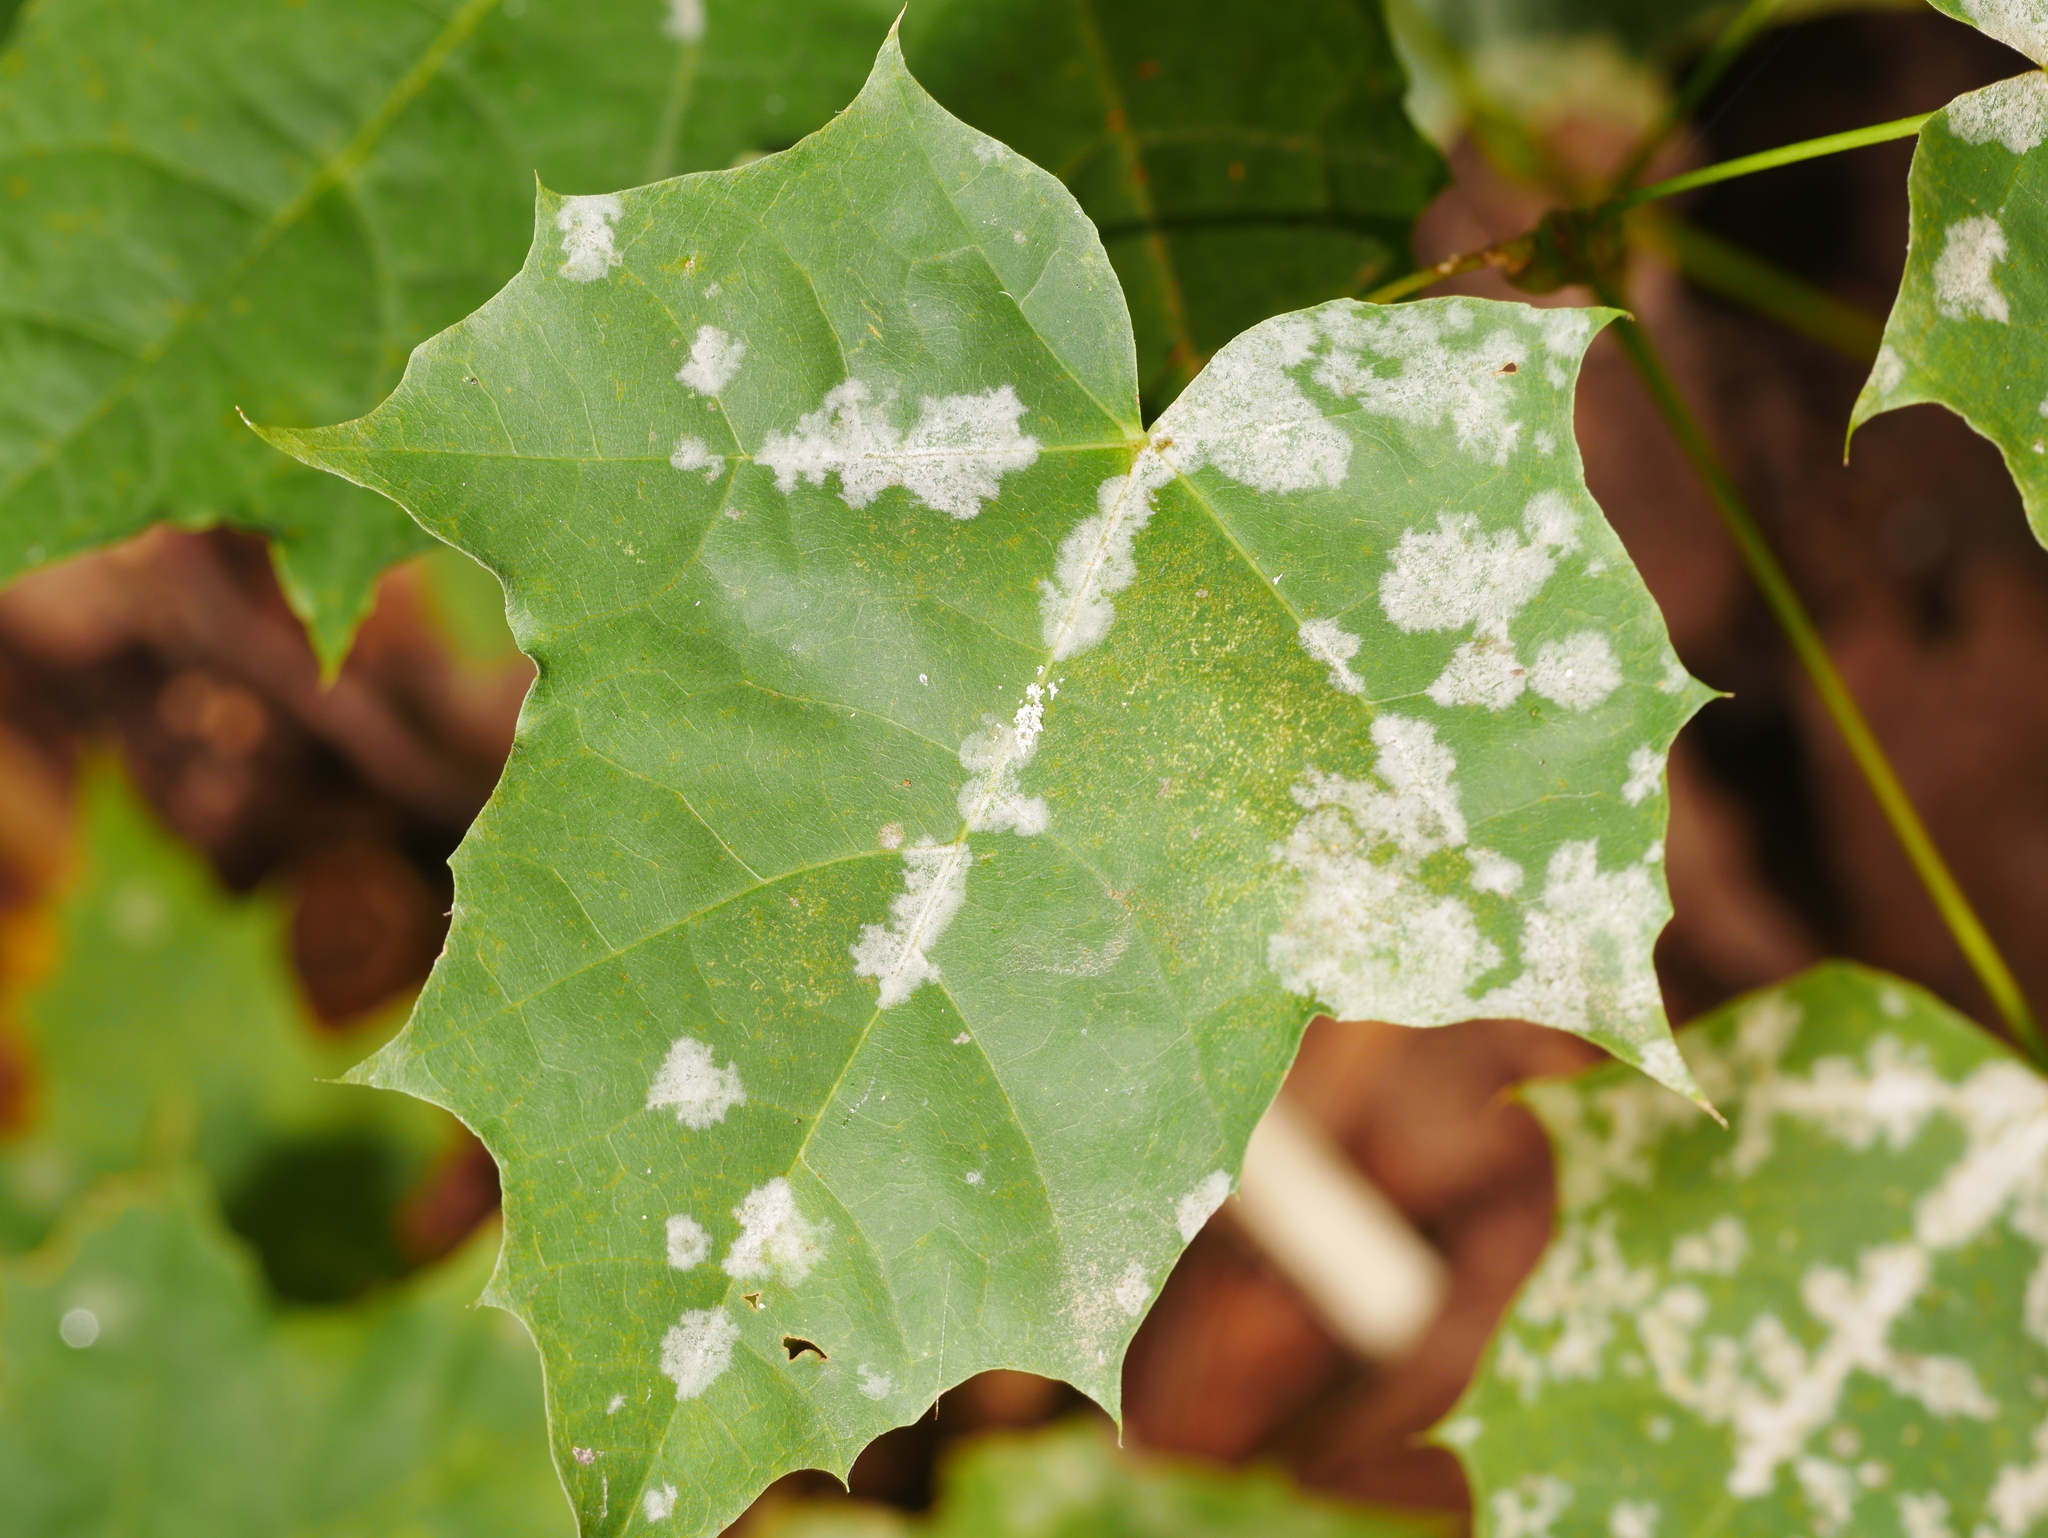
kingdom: Fungi
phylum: Ascomycota
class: Leotiomycetes
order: Helotiales
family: Erysiphaceae
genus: Sawadaea
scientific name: Sawadaea tulasnei
